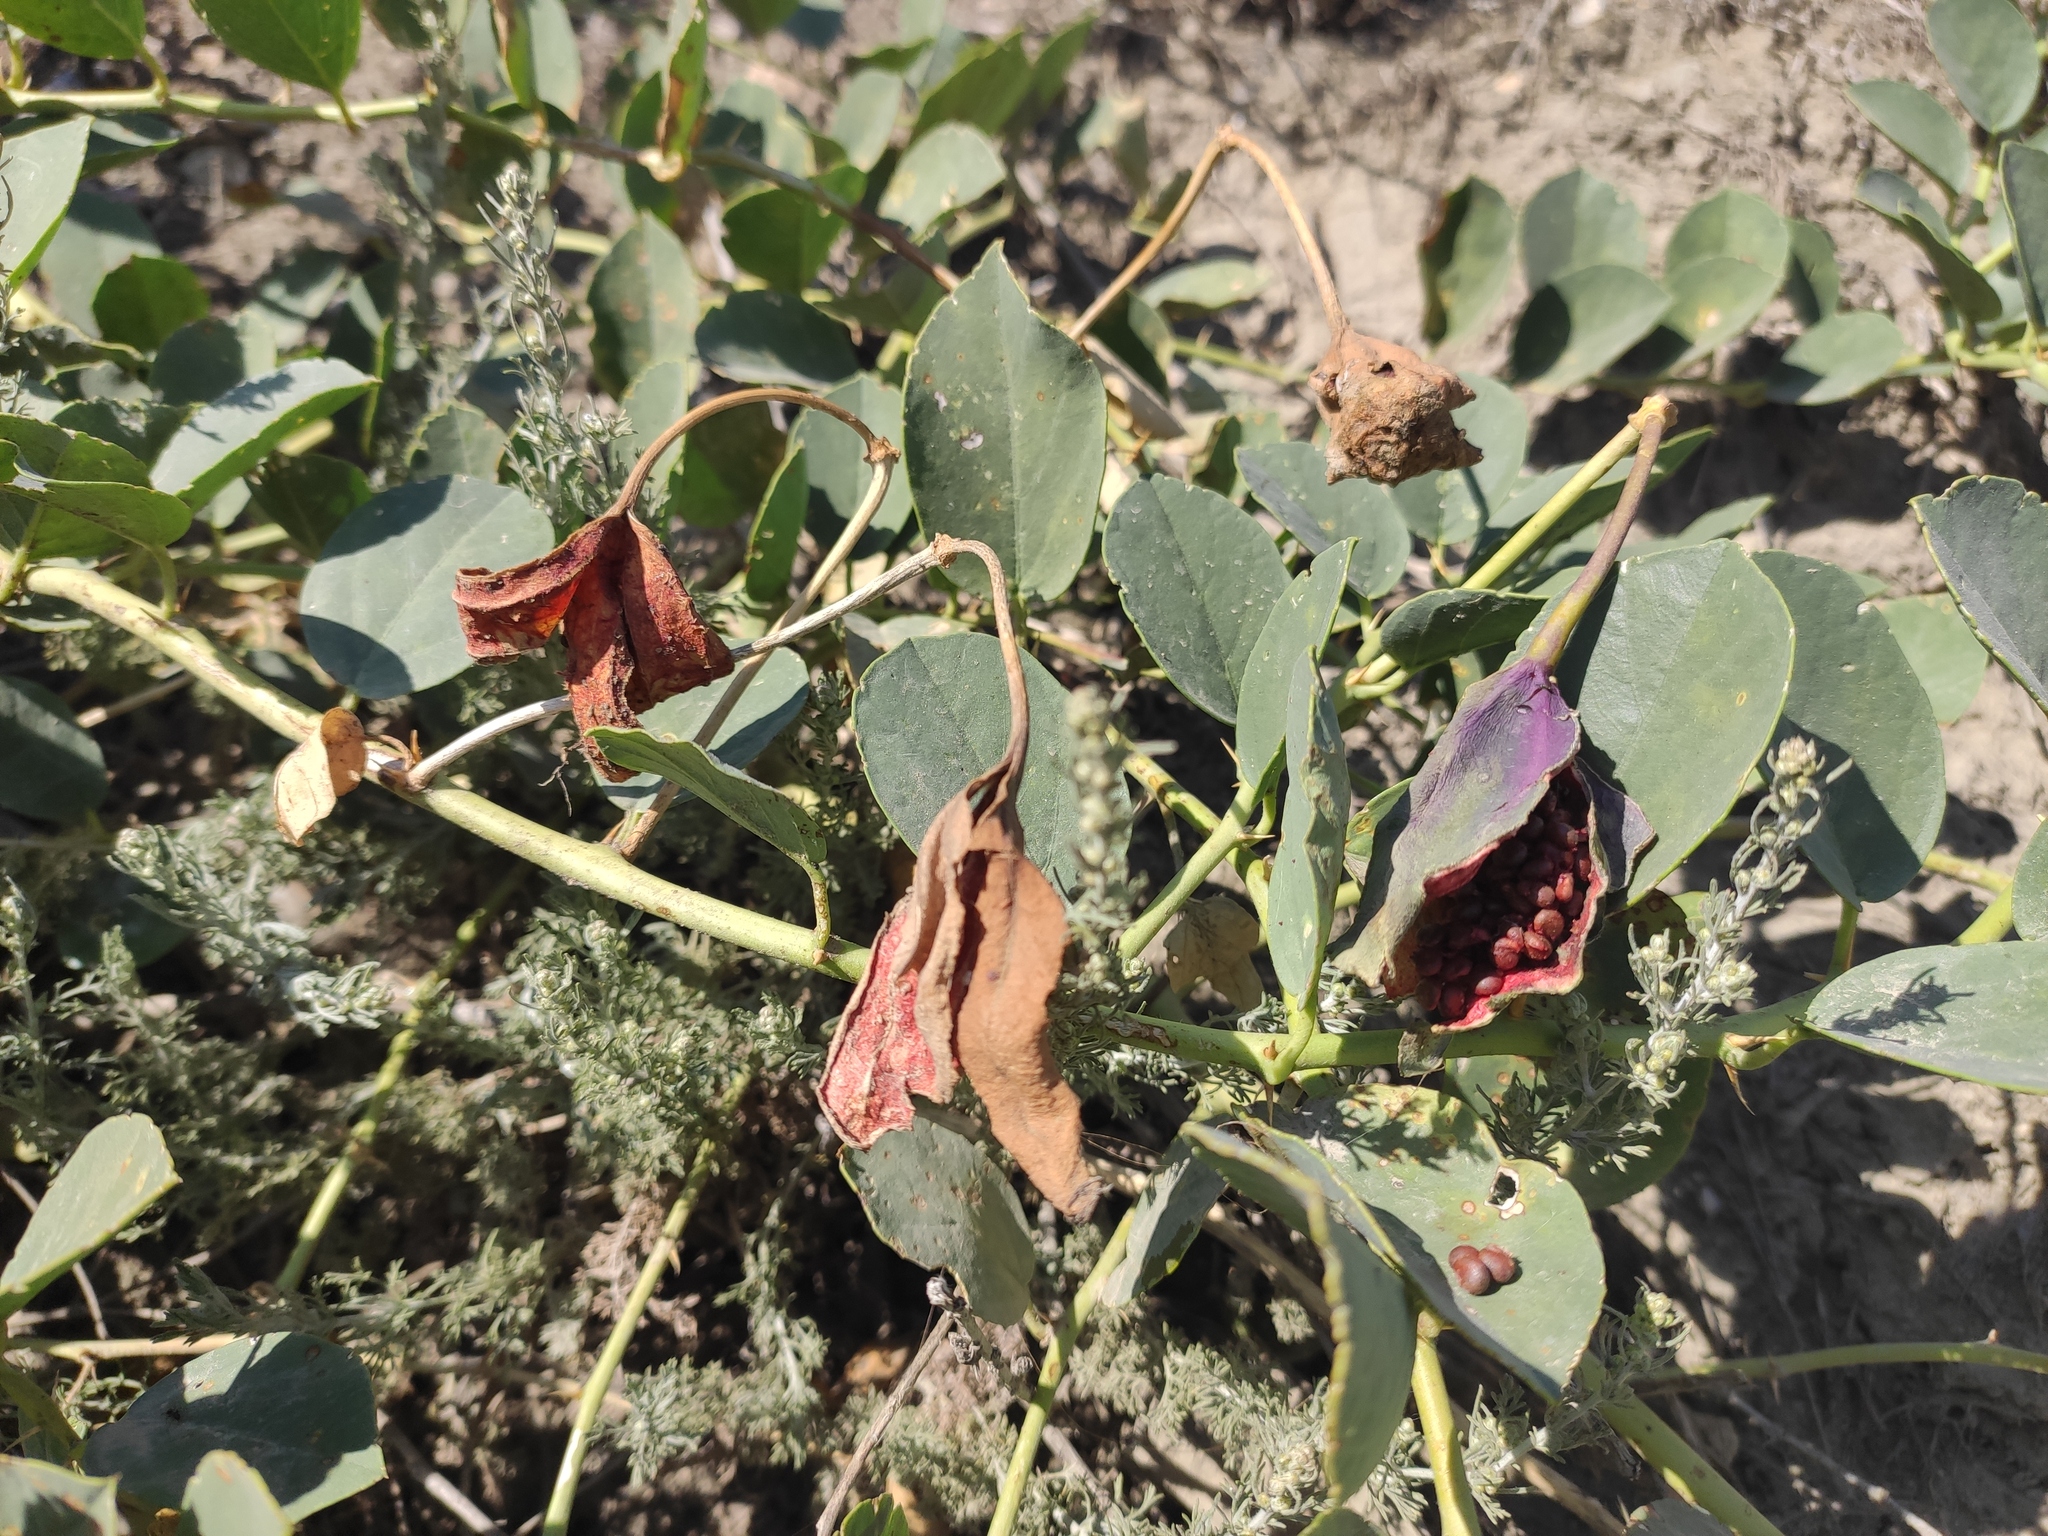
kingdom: Plantae
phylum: Tracheophyta
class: Magnoliopsida
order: Brassicales
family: Capparaceae
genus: Capparis
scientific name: Capparis spinosa
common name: Caper
